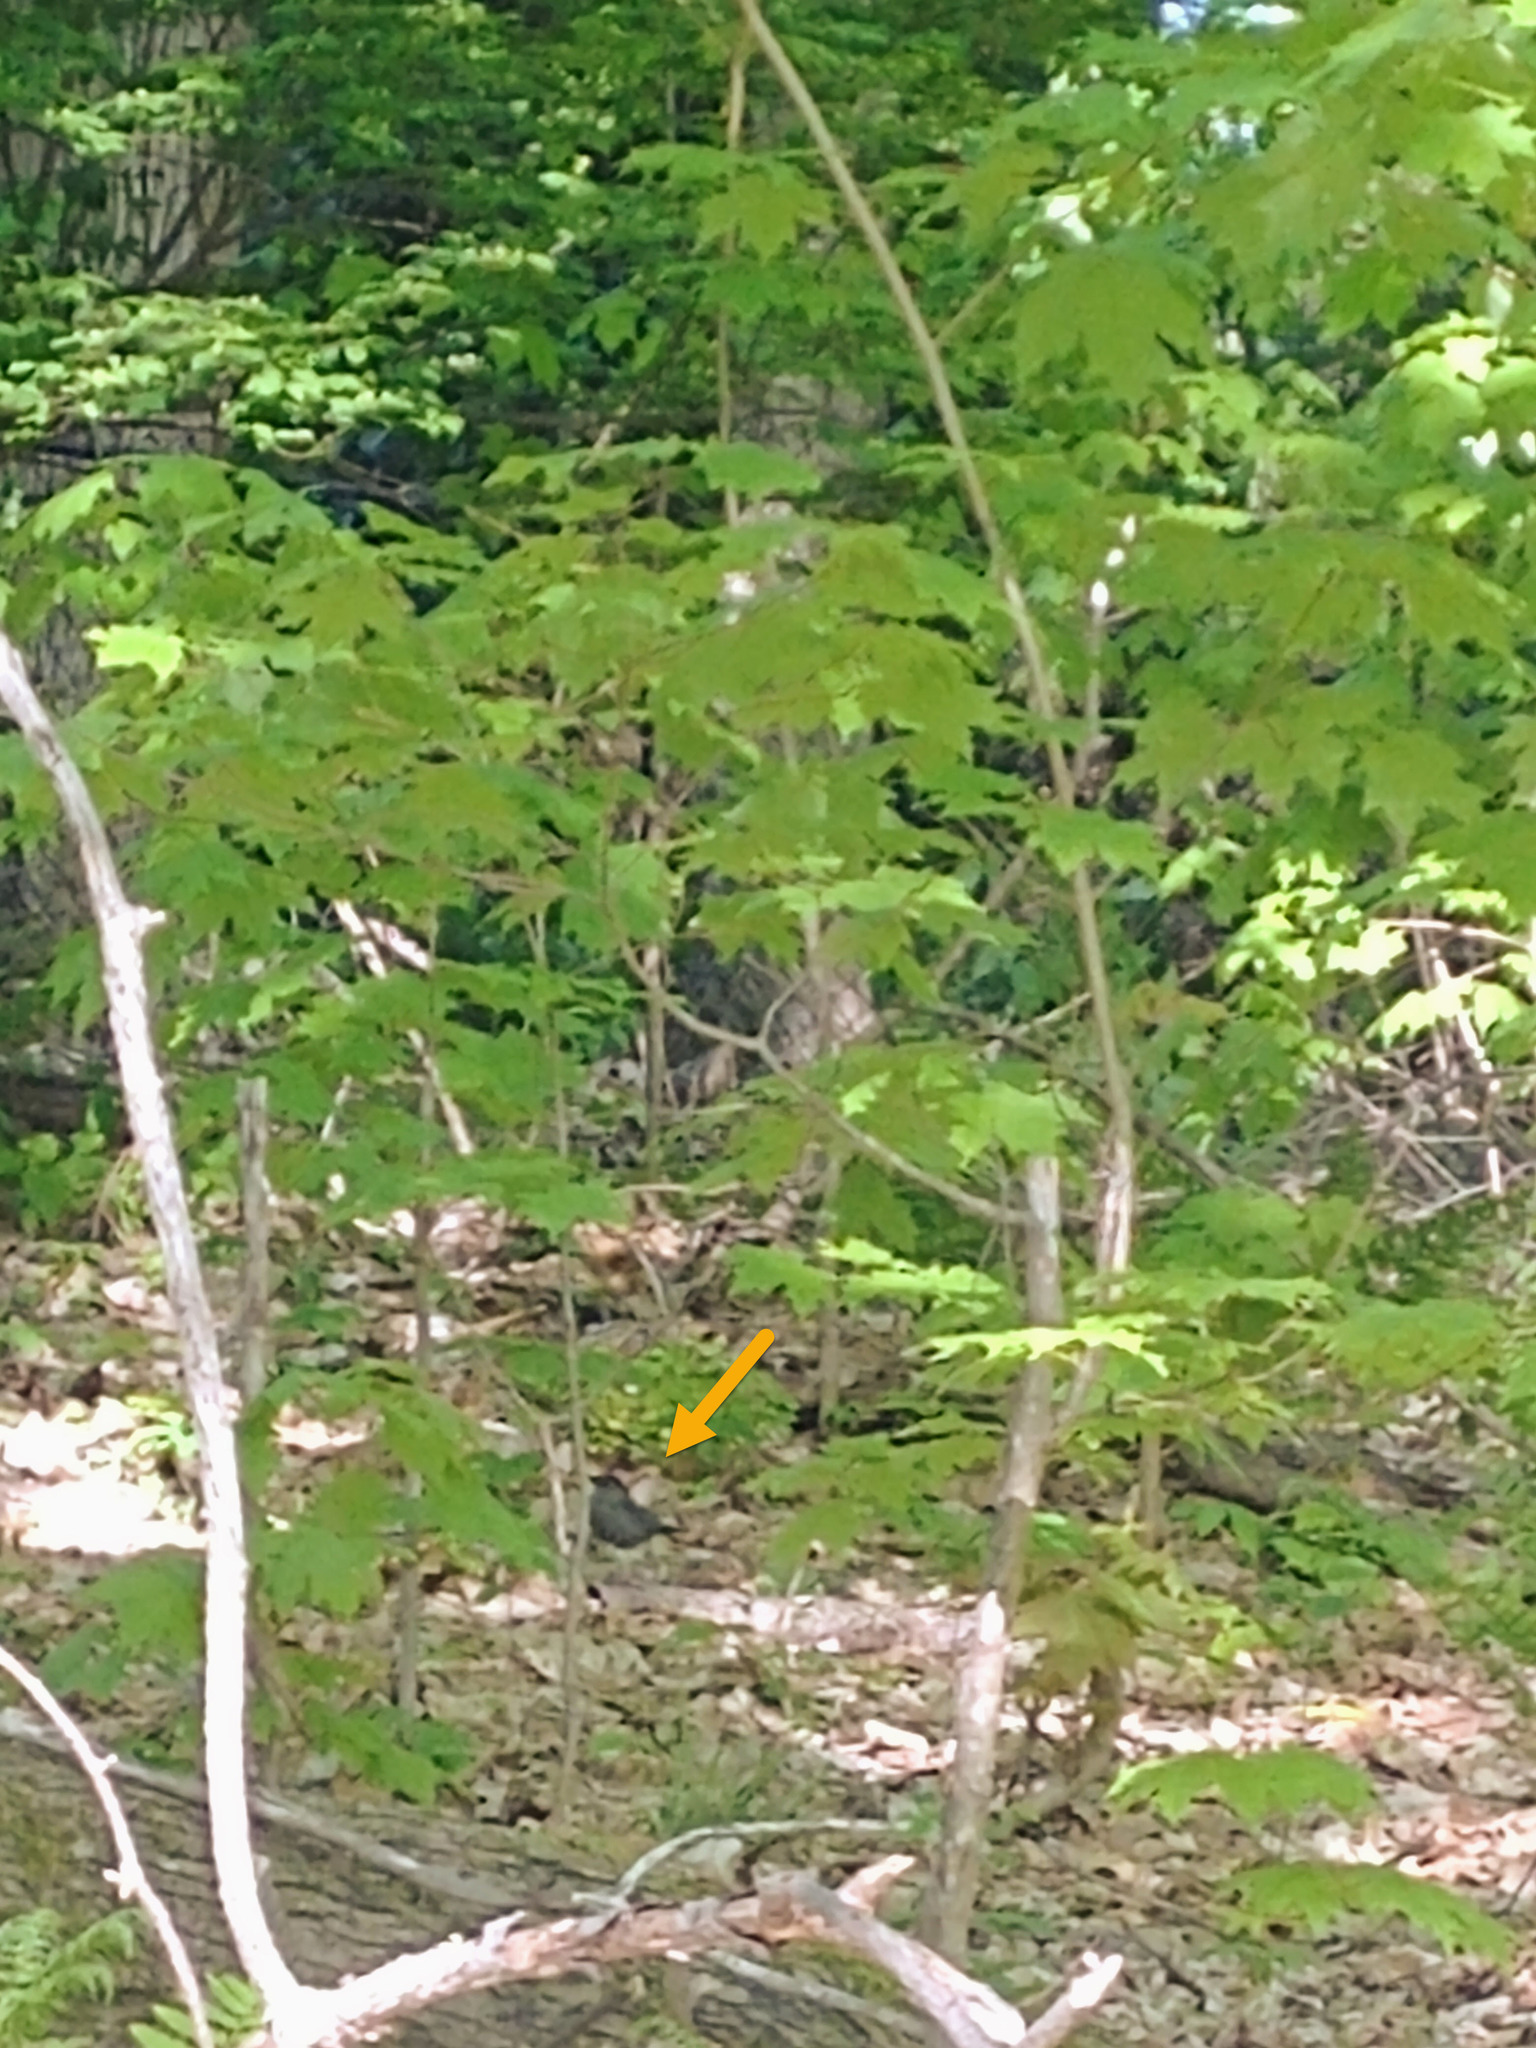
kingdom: Animalia
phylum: Chordata
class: Aves
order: Passeriformes
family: Mimidae
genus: Dumetella
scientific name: Dumetella carolinensis
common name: Gray catbird
